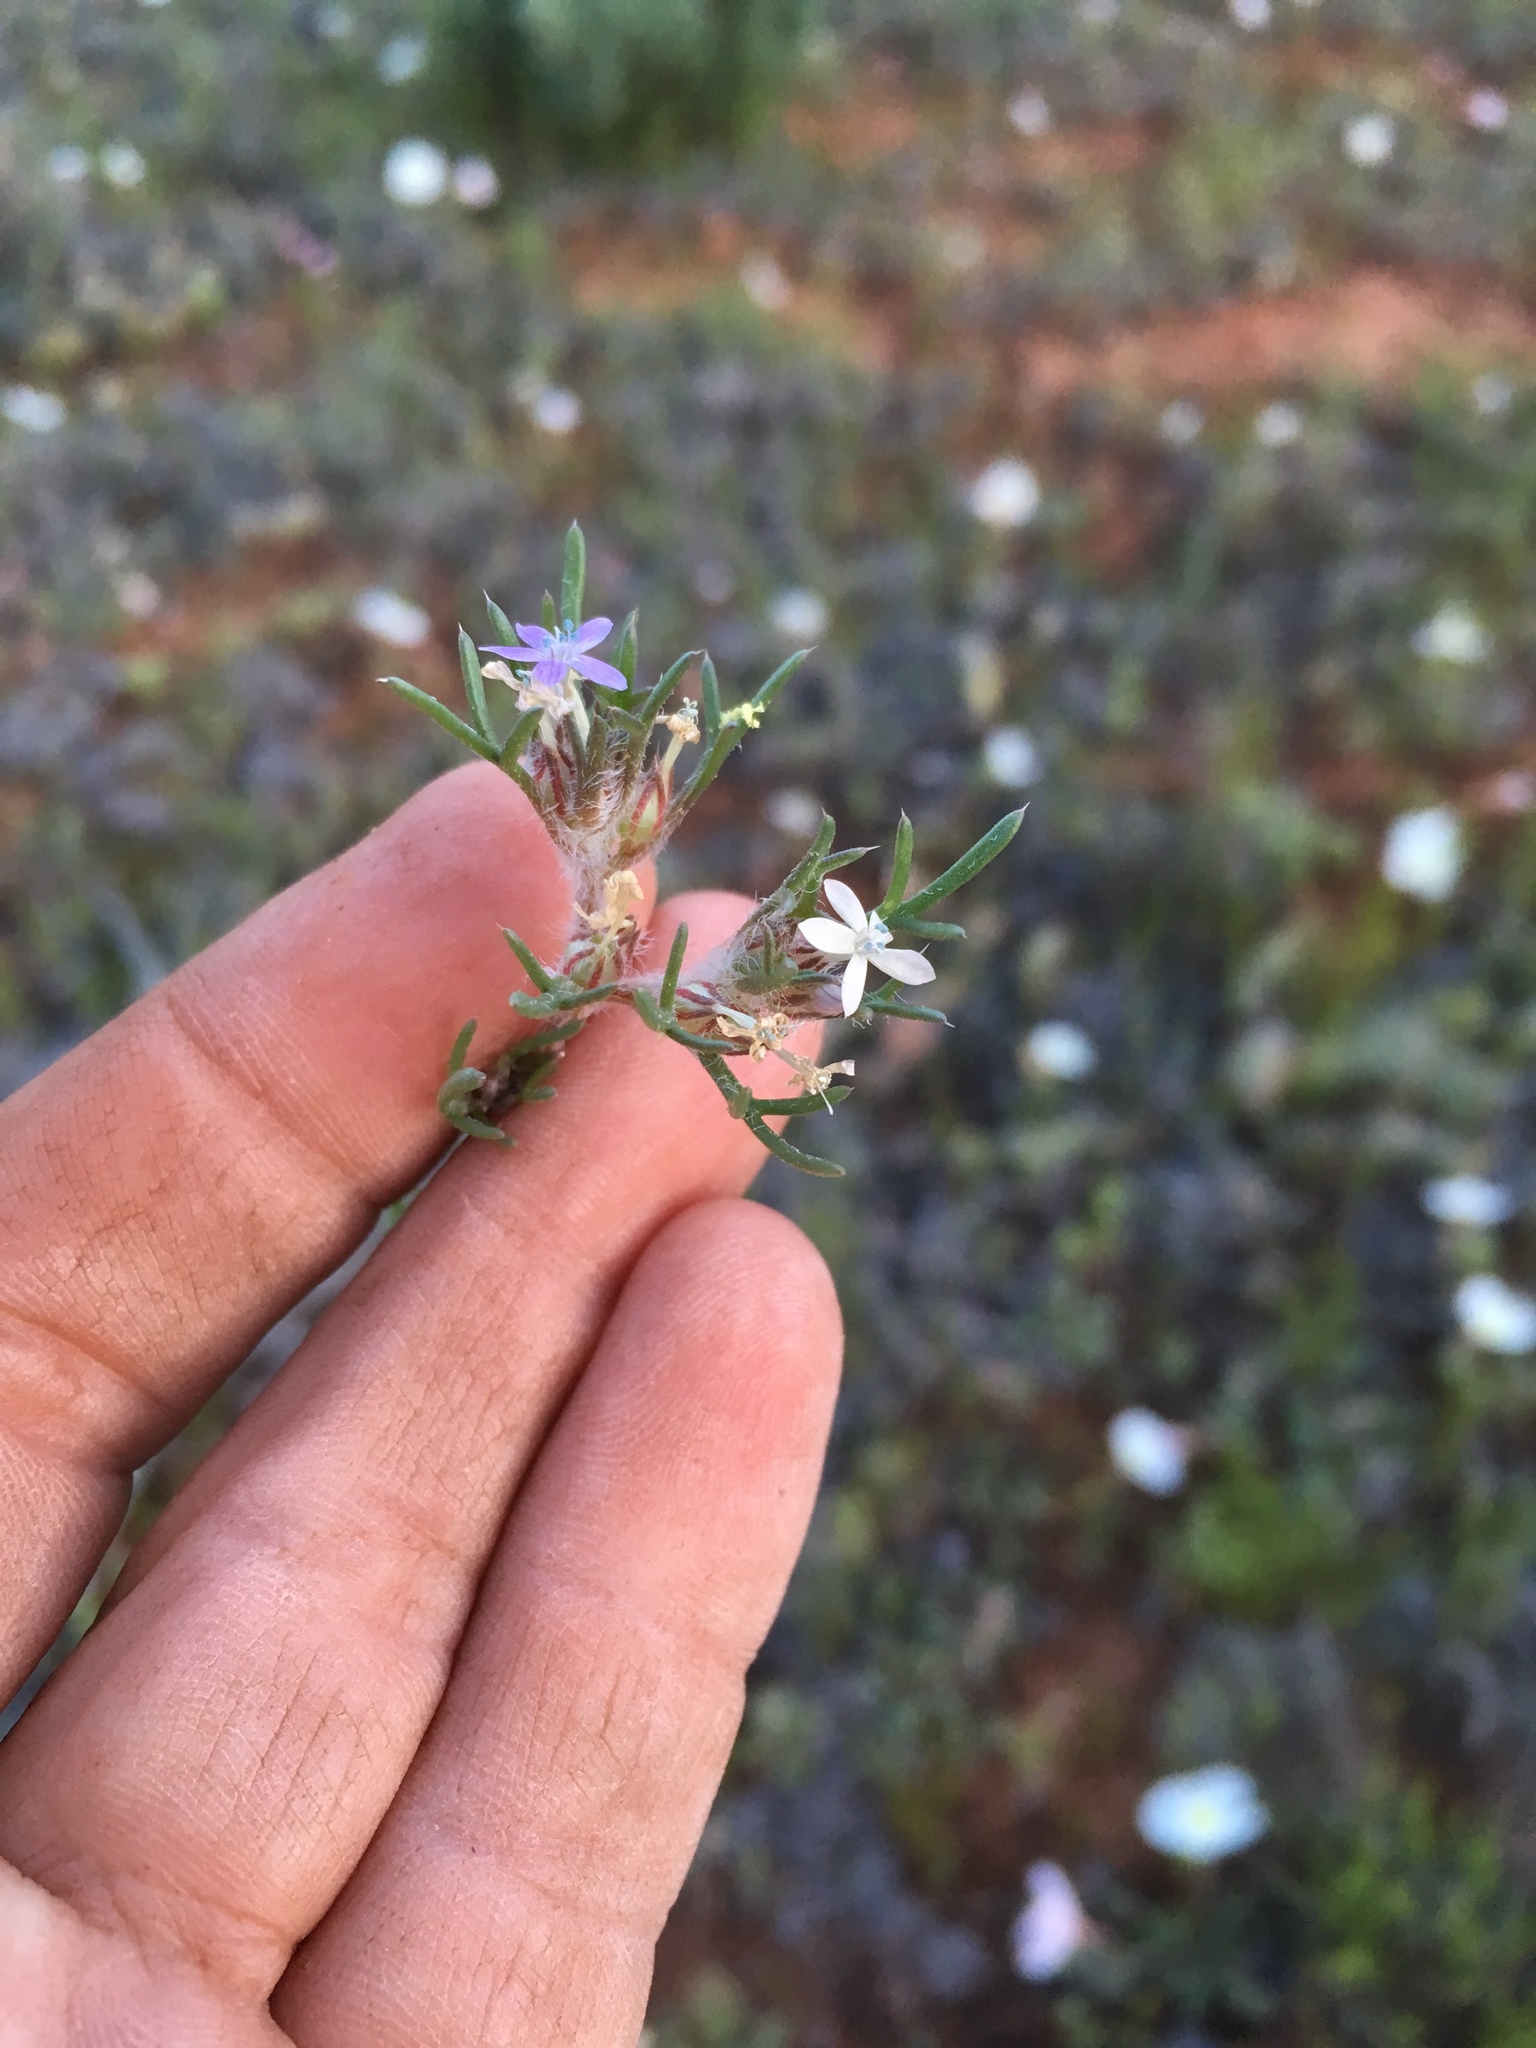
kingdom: Plantae
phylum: Tracheophyta
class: Magnoliopsida
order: Ericales
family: Polemoniaceae
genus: Ipomopsis
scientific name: Ipomopsis pumila
